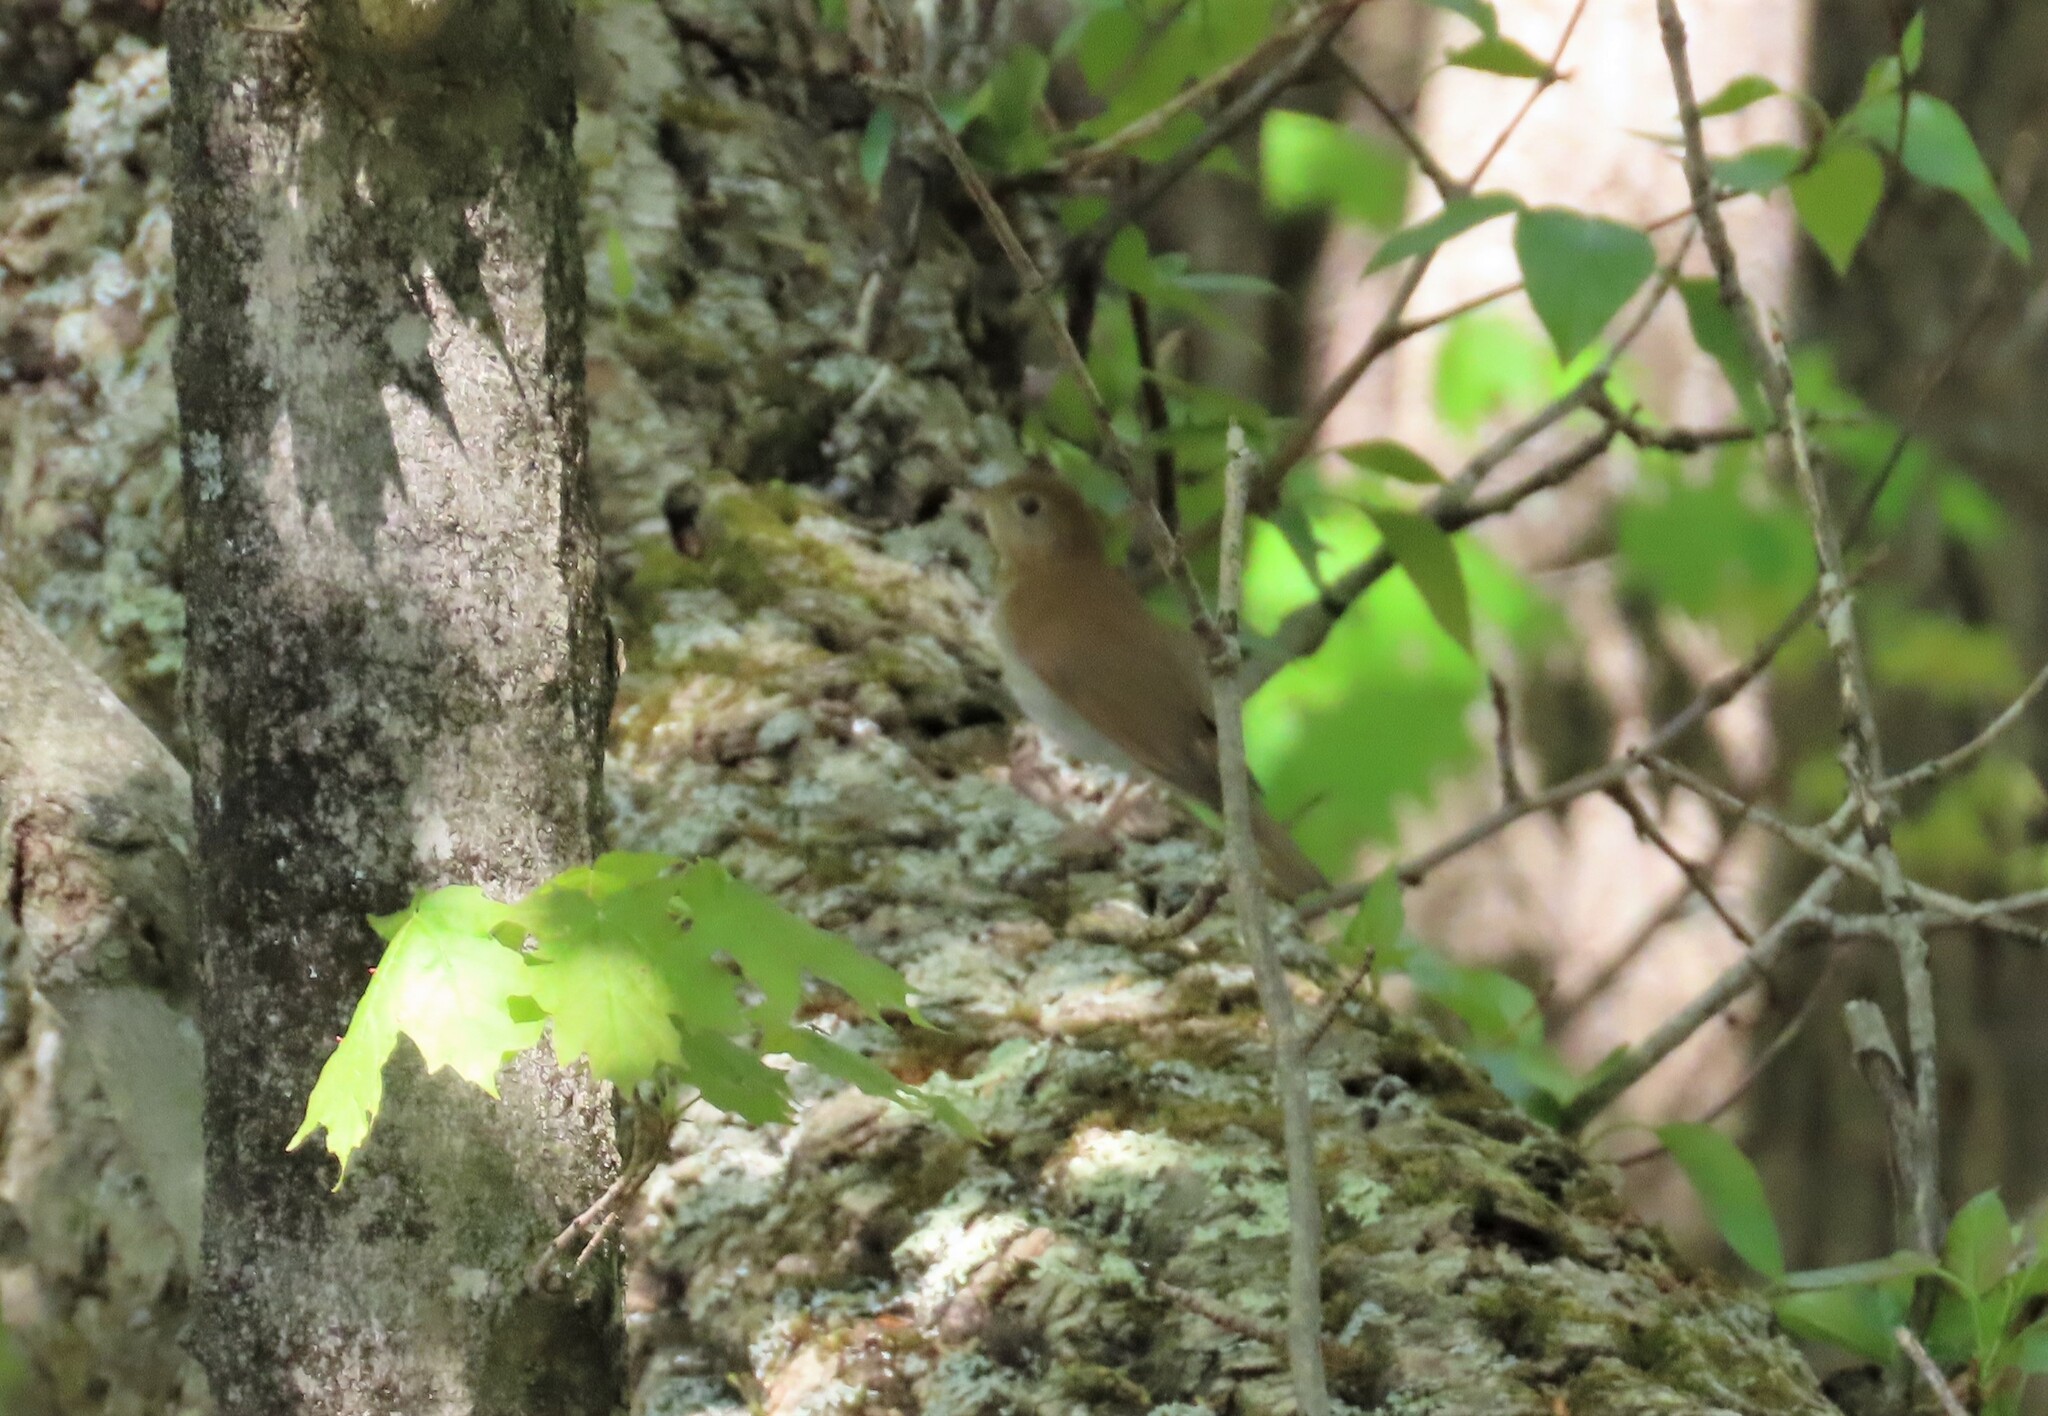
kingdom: Animalia
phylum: Chordata
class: Aves
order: Passeriformes
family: Turdidae
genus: Catharus
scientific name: Catharus fuscescens
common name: Veery
